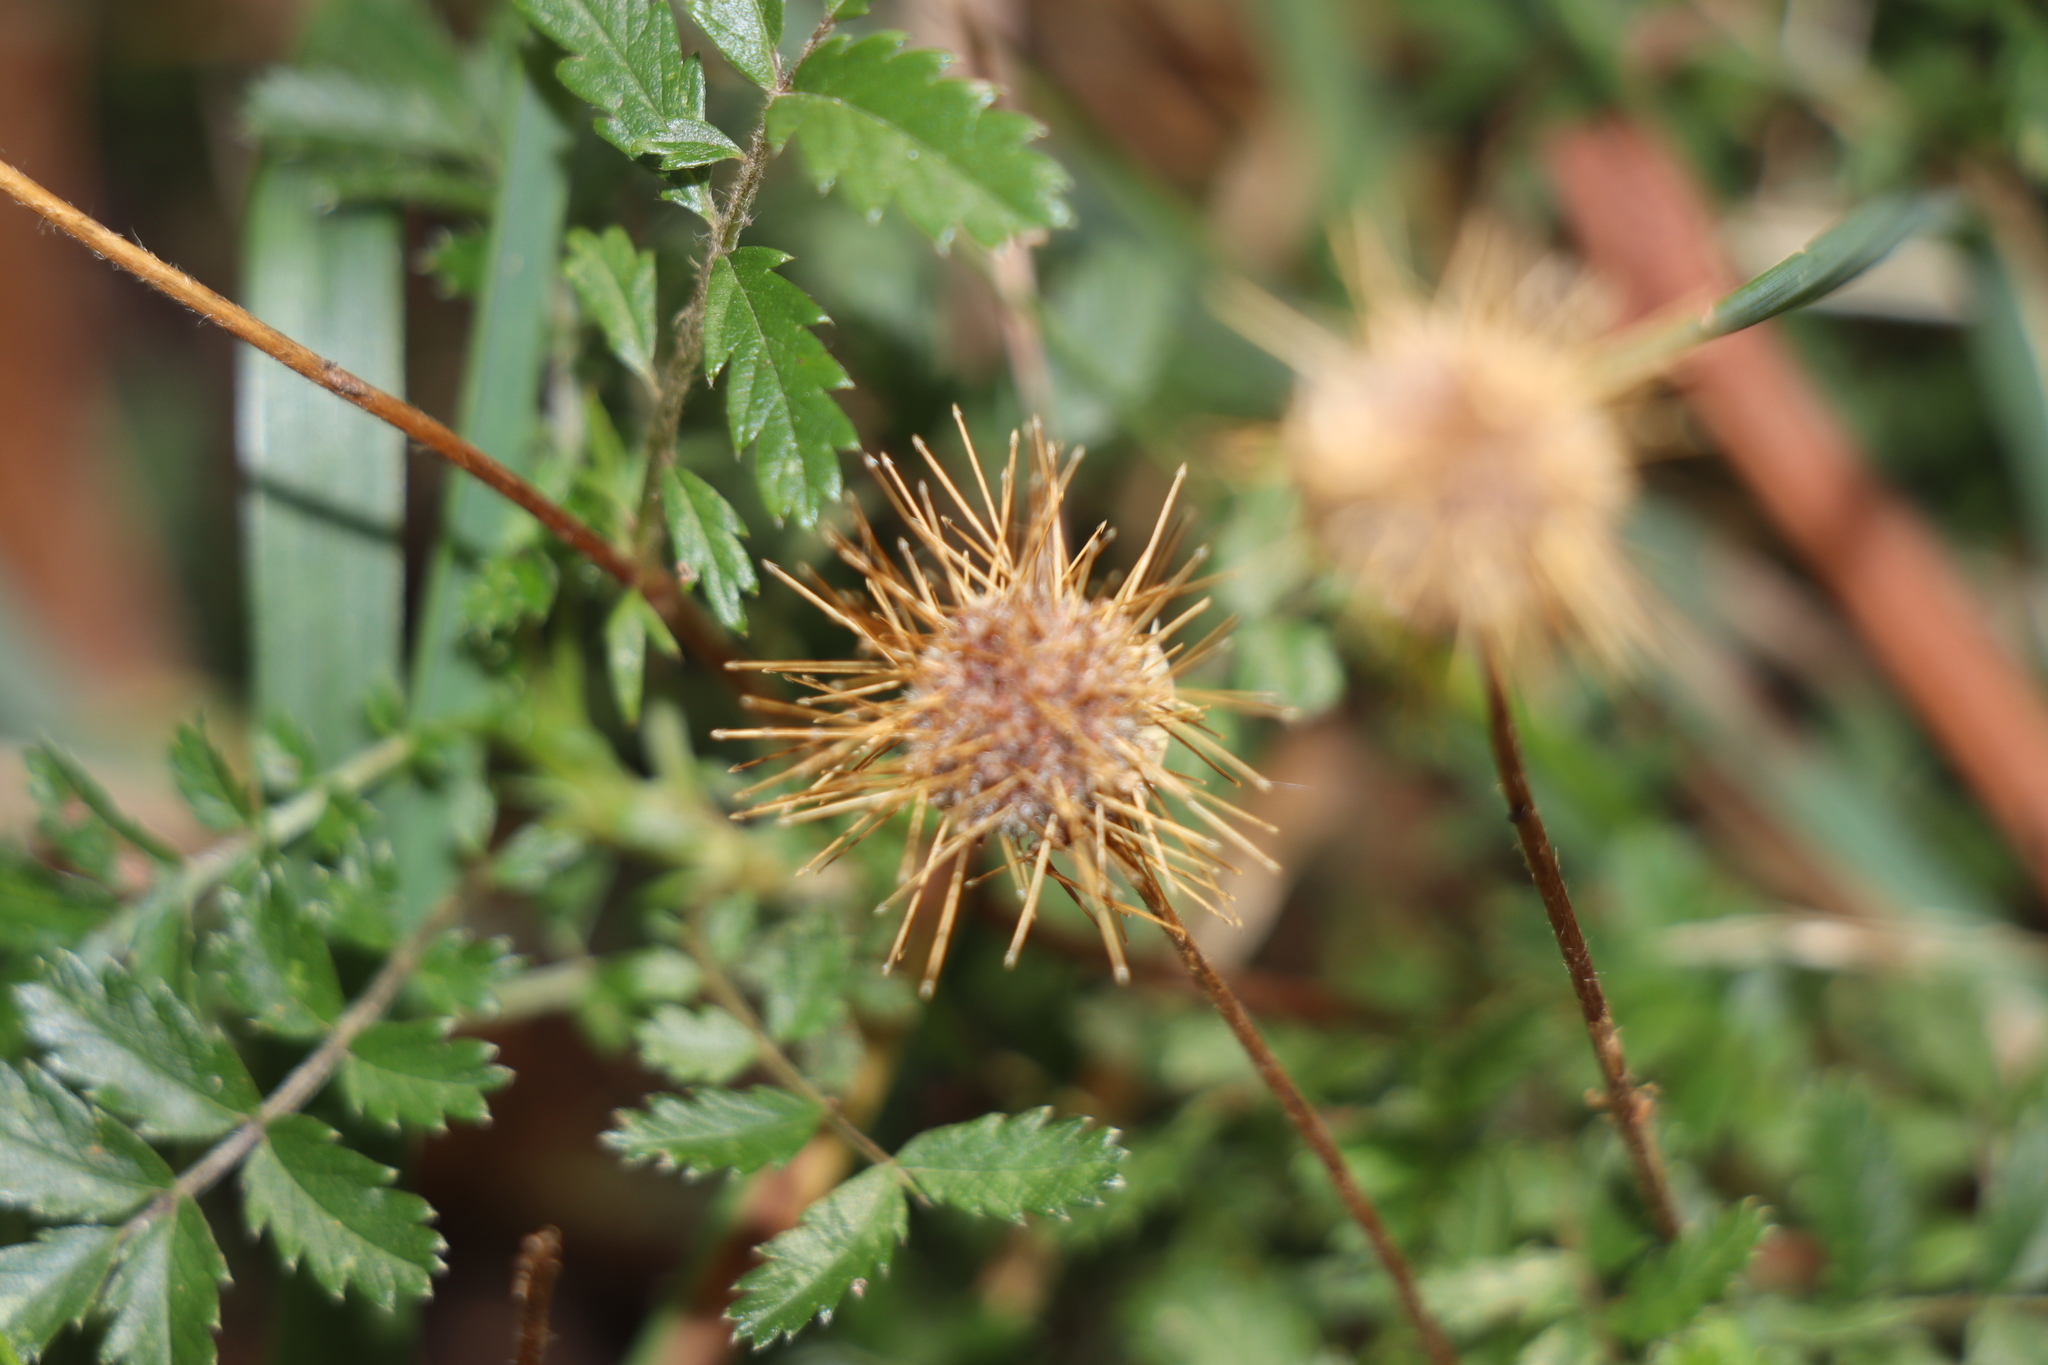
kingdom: Plantae
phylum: Tracheophyta
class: Magnoliopsida
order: Rosales
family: Rosaceae
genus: Acaena
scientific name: Acaena novae-zelandiae
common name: Pirri-pirri-bur
